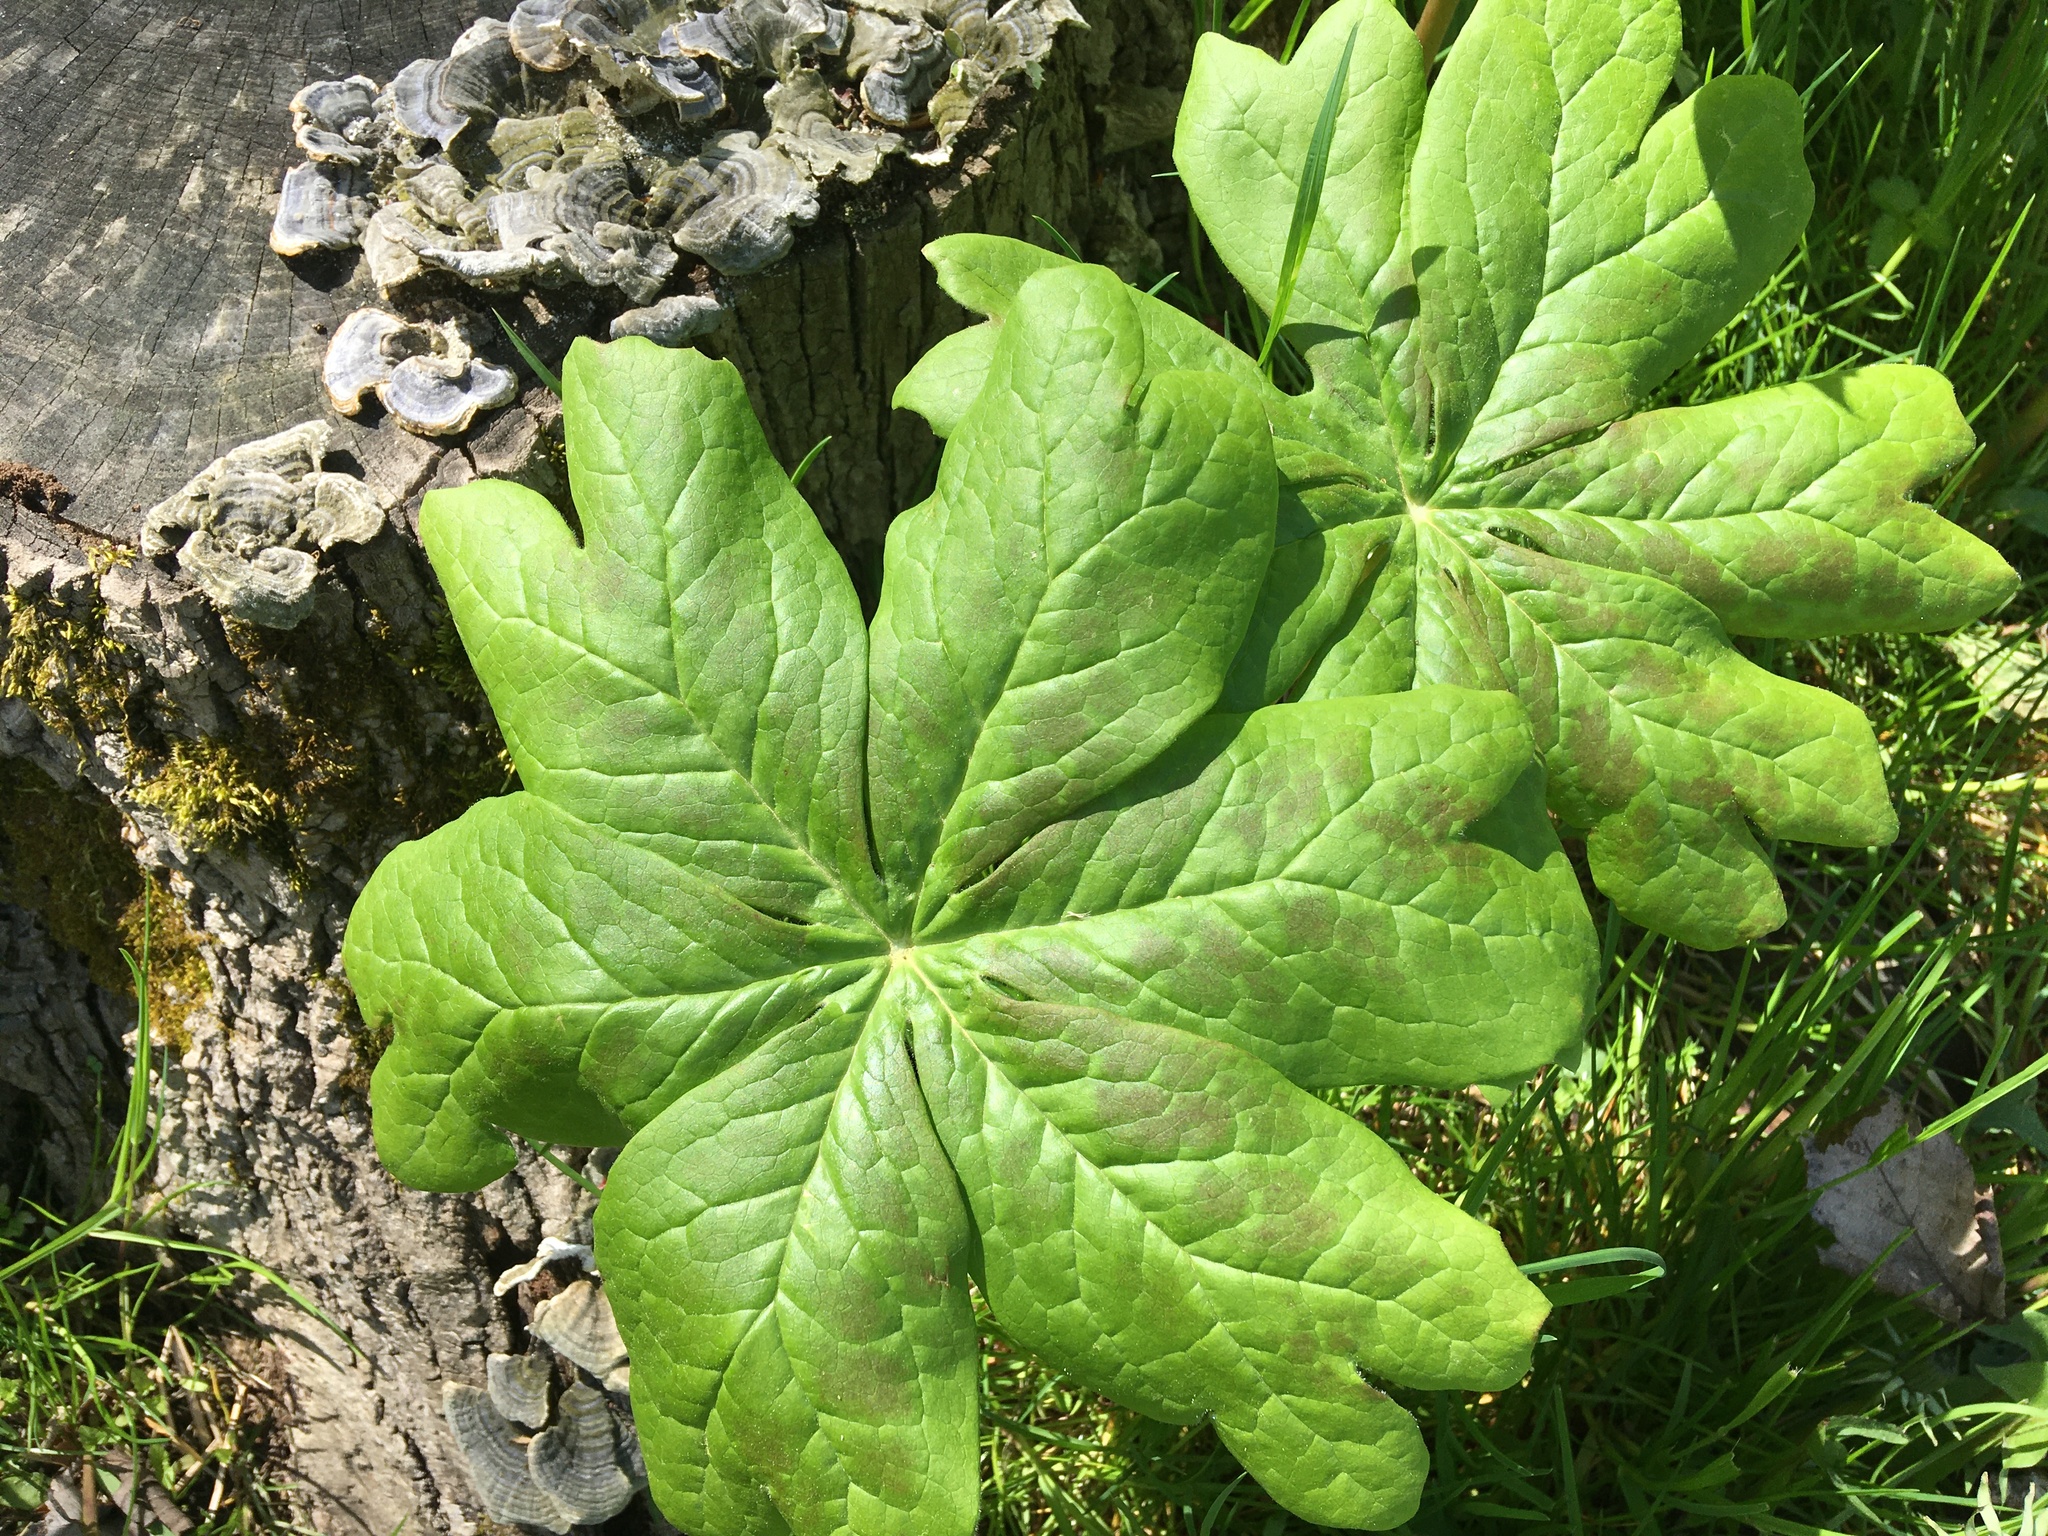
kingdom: Plantae
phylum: Tracheophyta
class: Magnoliopsida
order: Ranunculales
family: Berberidaceae
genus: Podophyllum
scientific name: Podophyllum peltatum
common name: Wild mandrake
